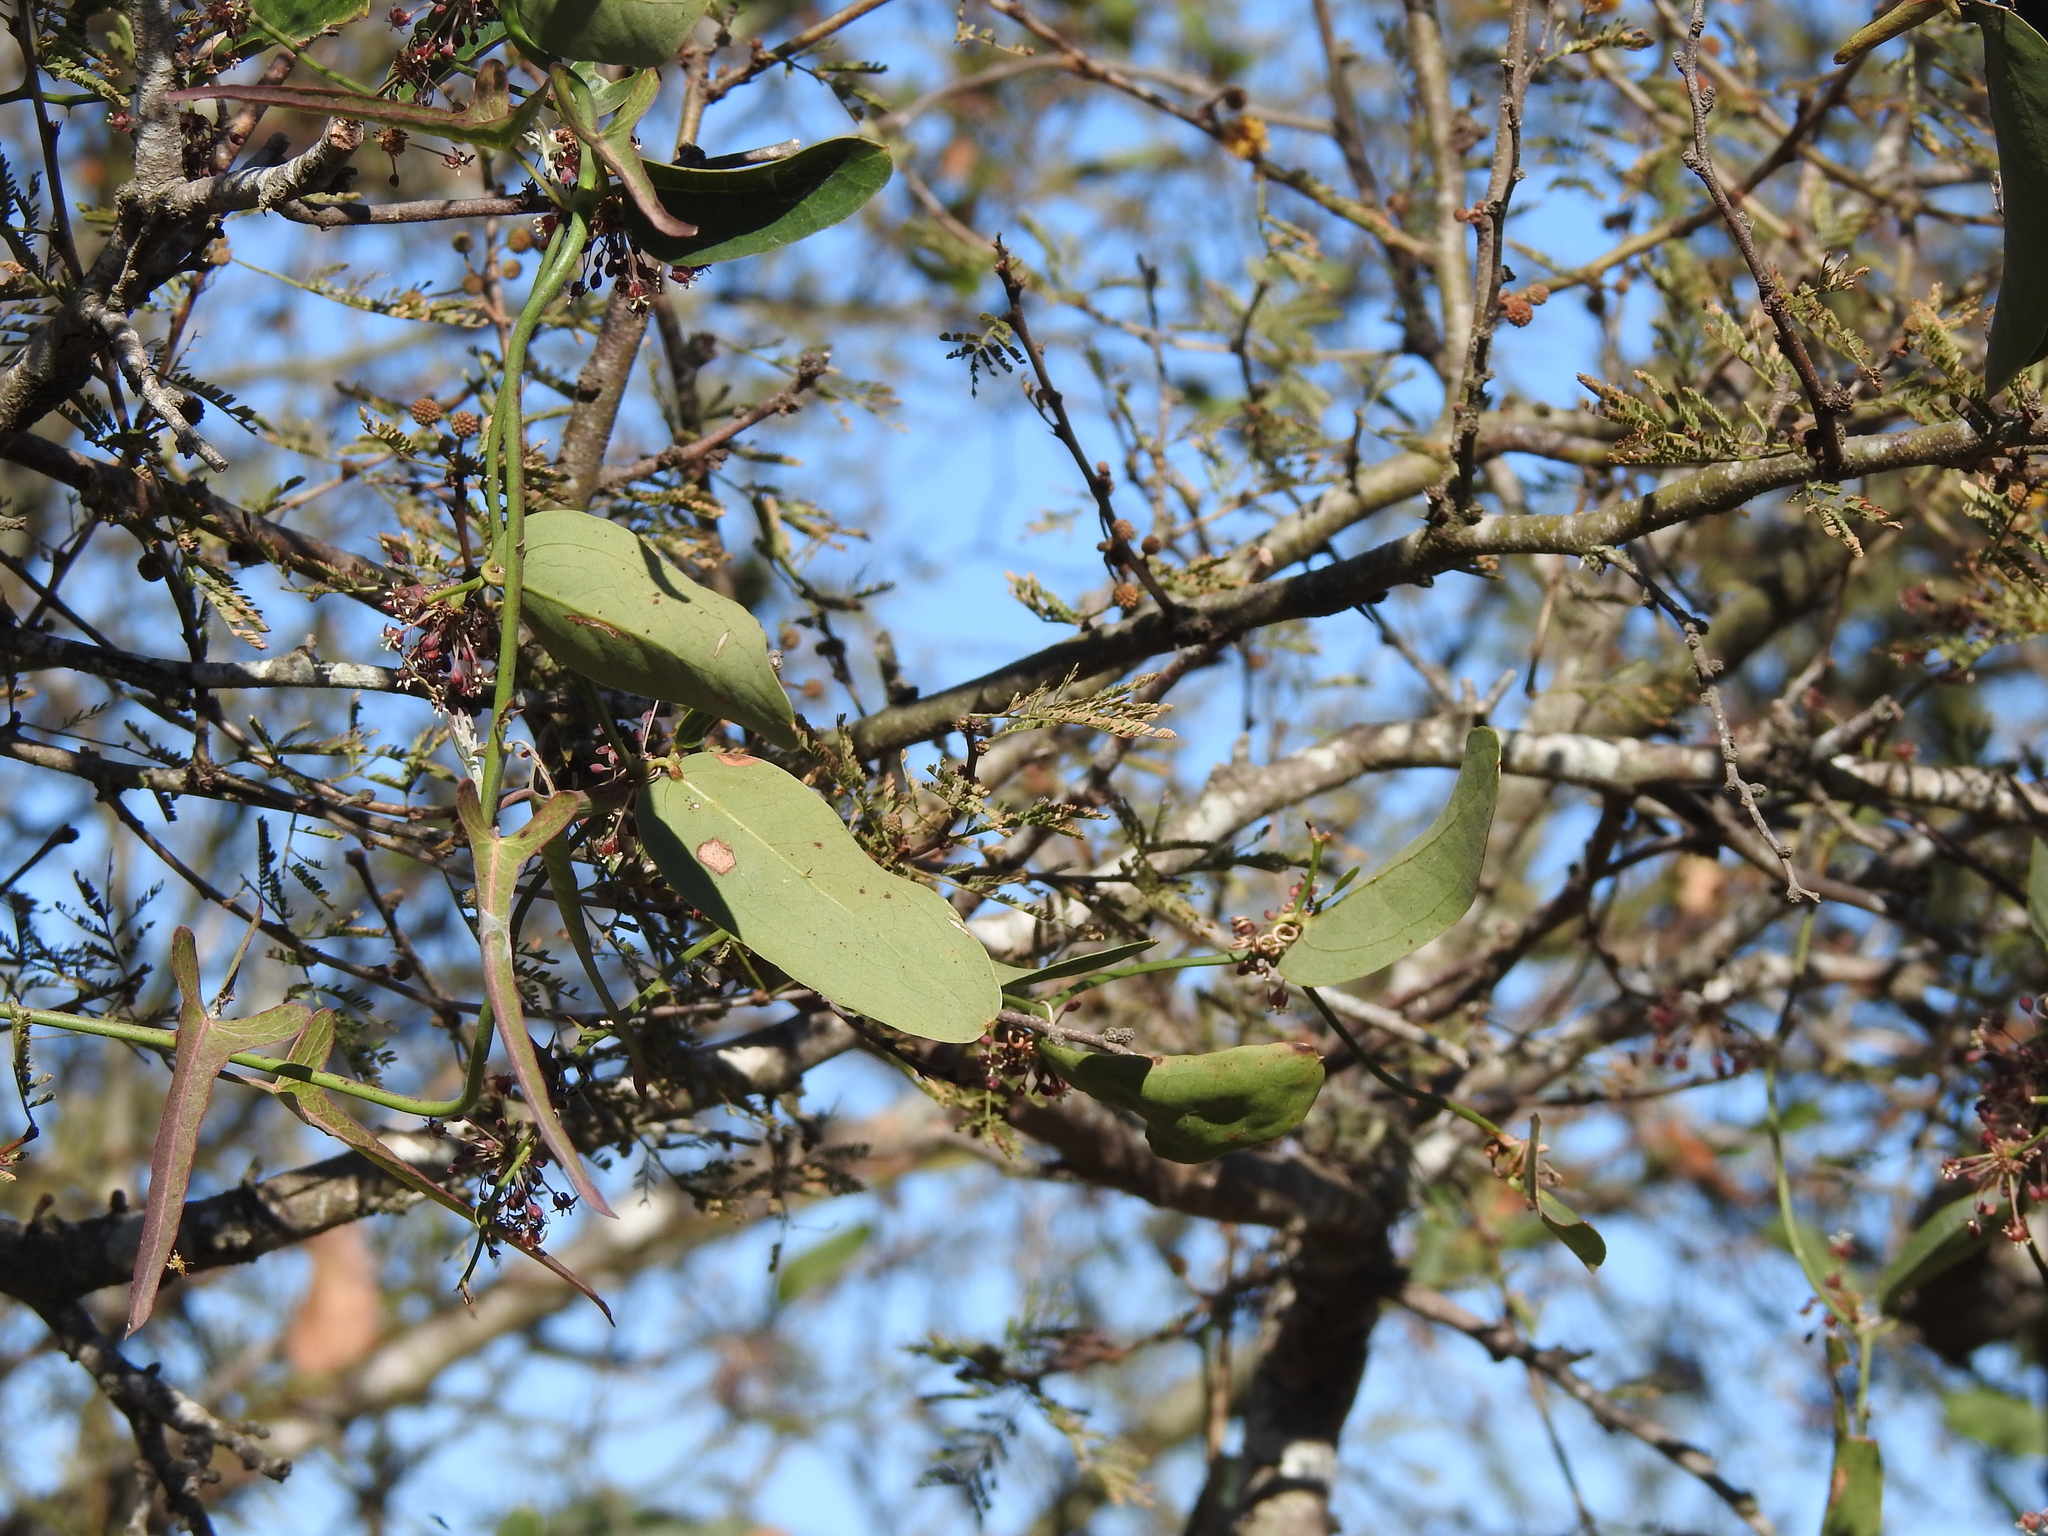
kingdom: Plantae
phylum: Tracheophyta
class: Magnoliopsida
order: Gentianales
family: Apocynaceae
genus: Araujia
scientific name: Araujia angustifolia
